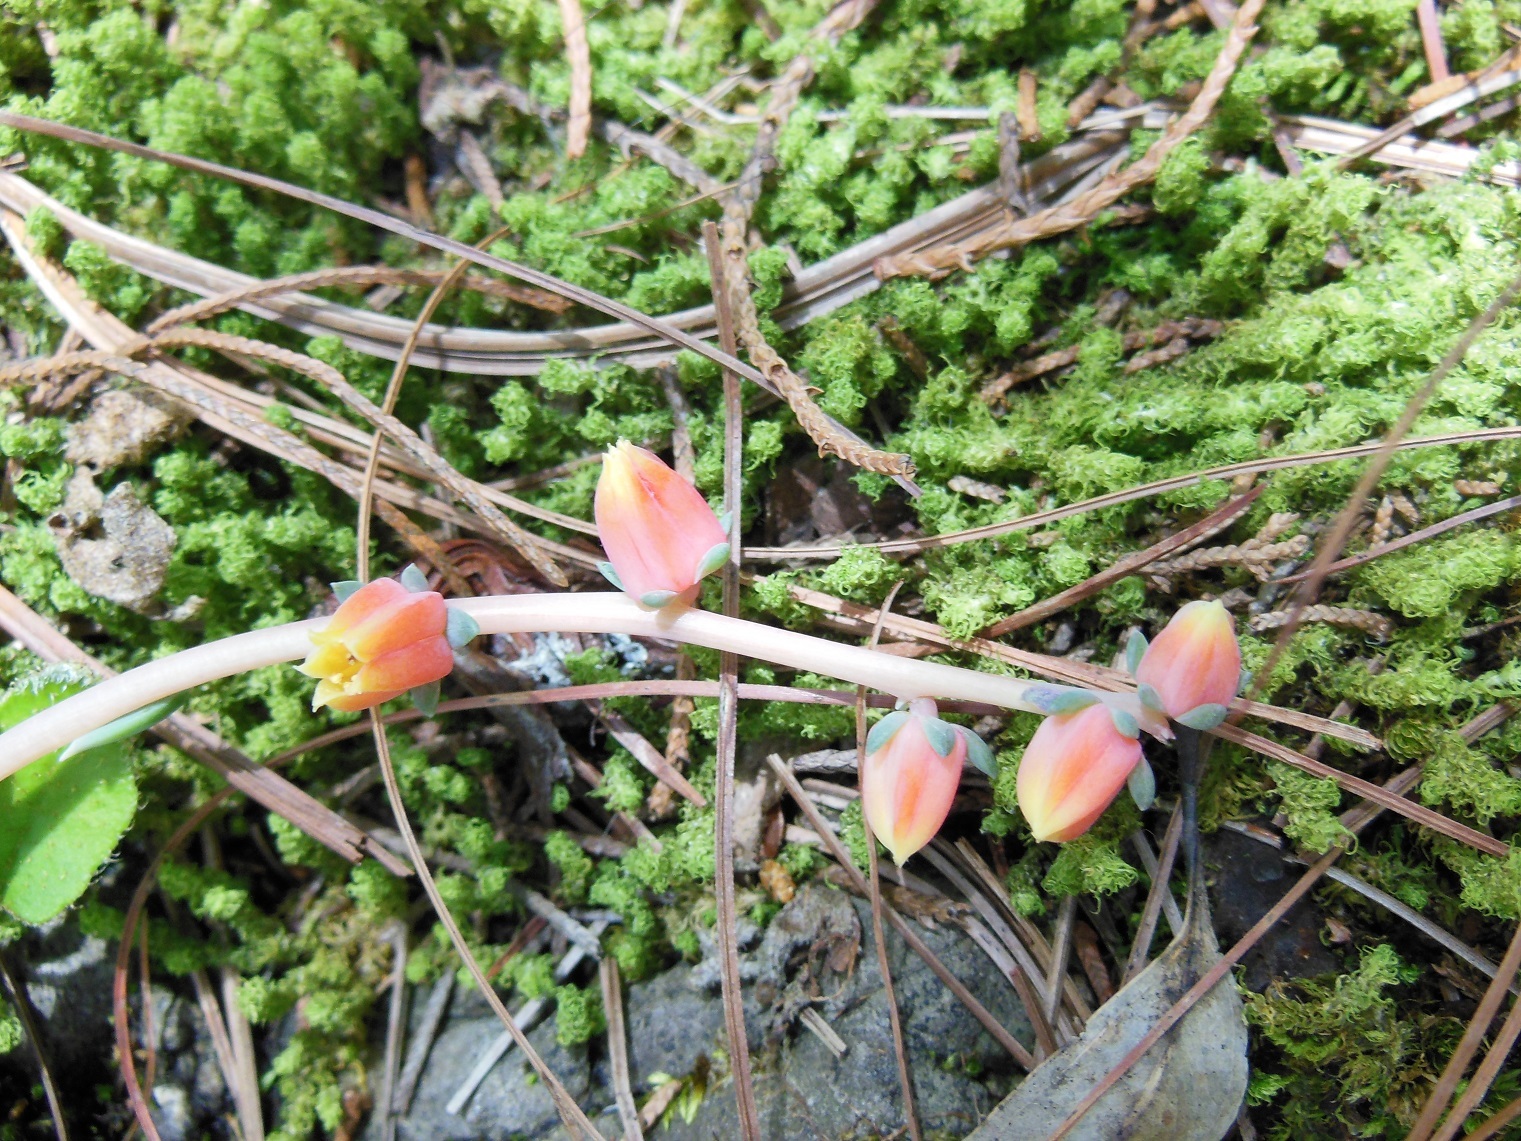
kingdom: Plantae
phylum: Tracheophyta
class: Magnoliopsida
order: Saxifragales
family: Crassulaceae
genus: Echeveria
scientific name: Echeveria bella
